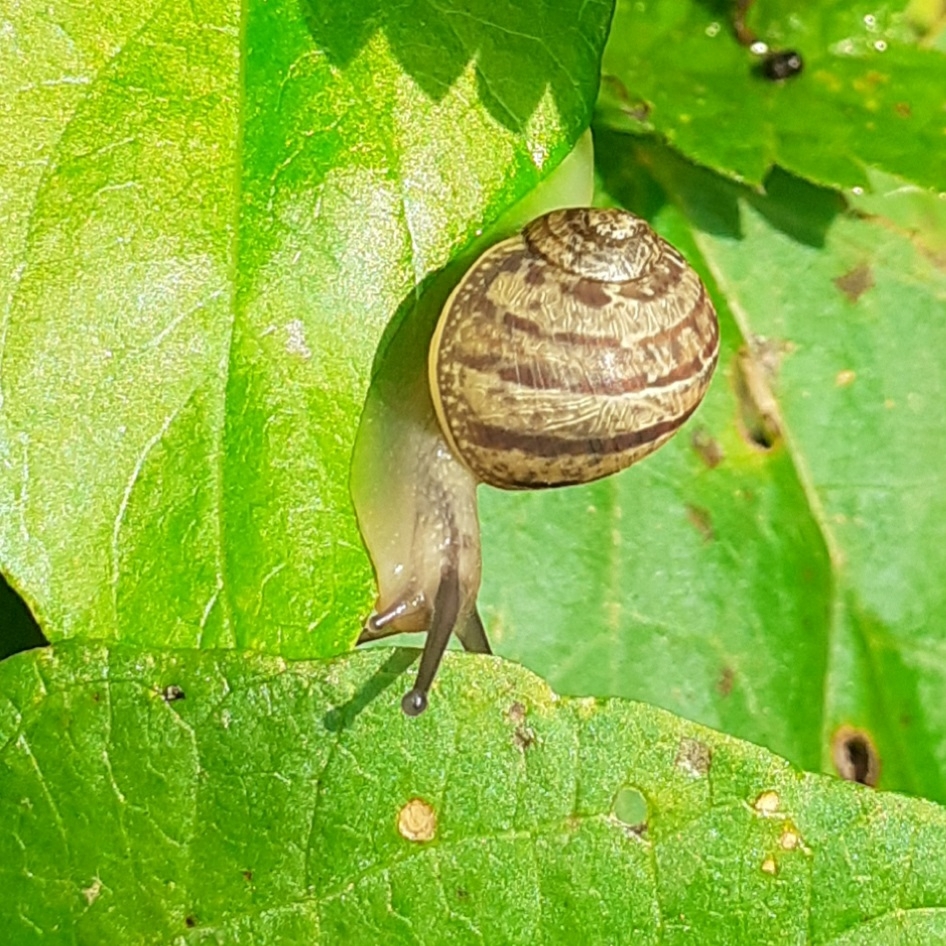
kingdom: Animalia
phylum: Mollusca
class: Gastropoda
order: Stylommatophora
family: Helicidae
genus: Cornu
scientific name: Cornu aspersum
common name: Brown garden snail
